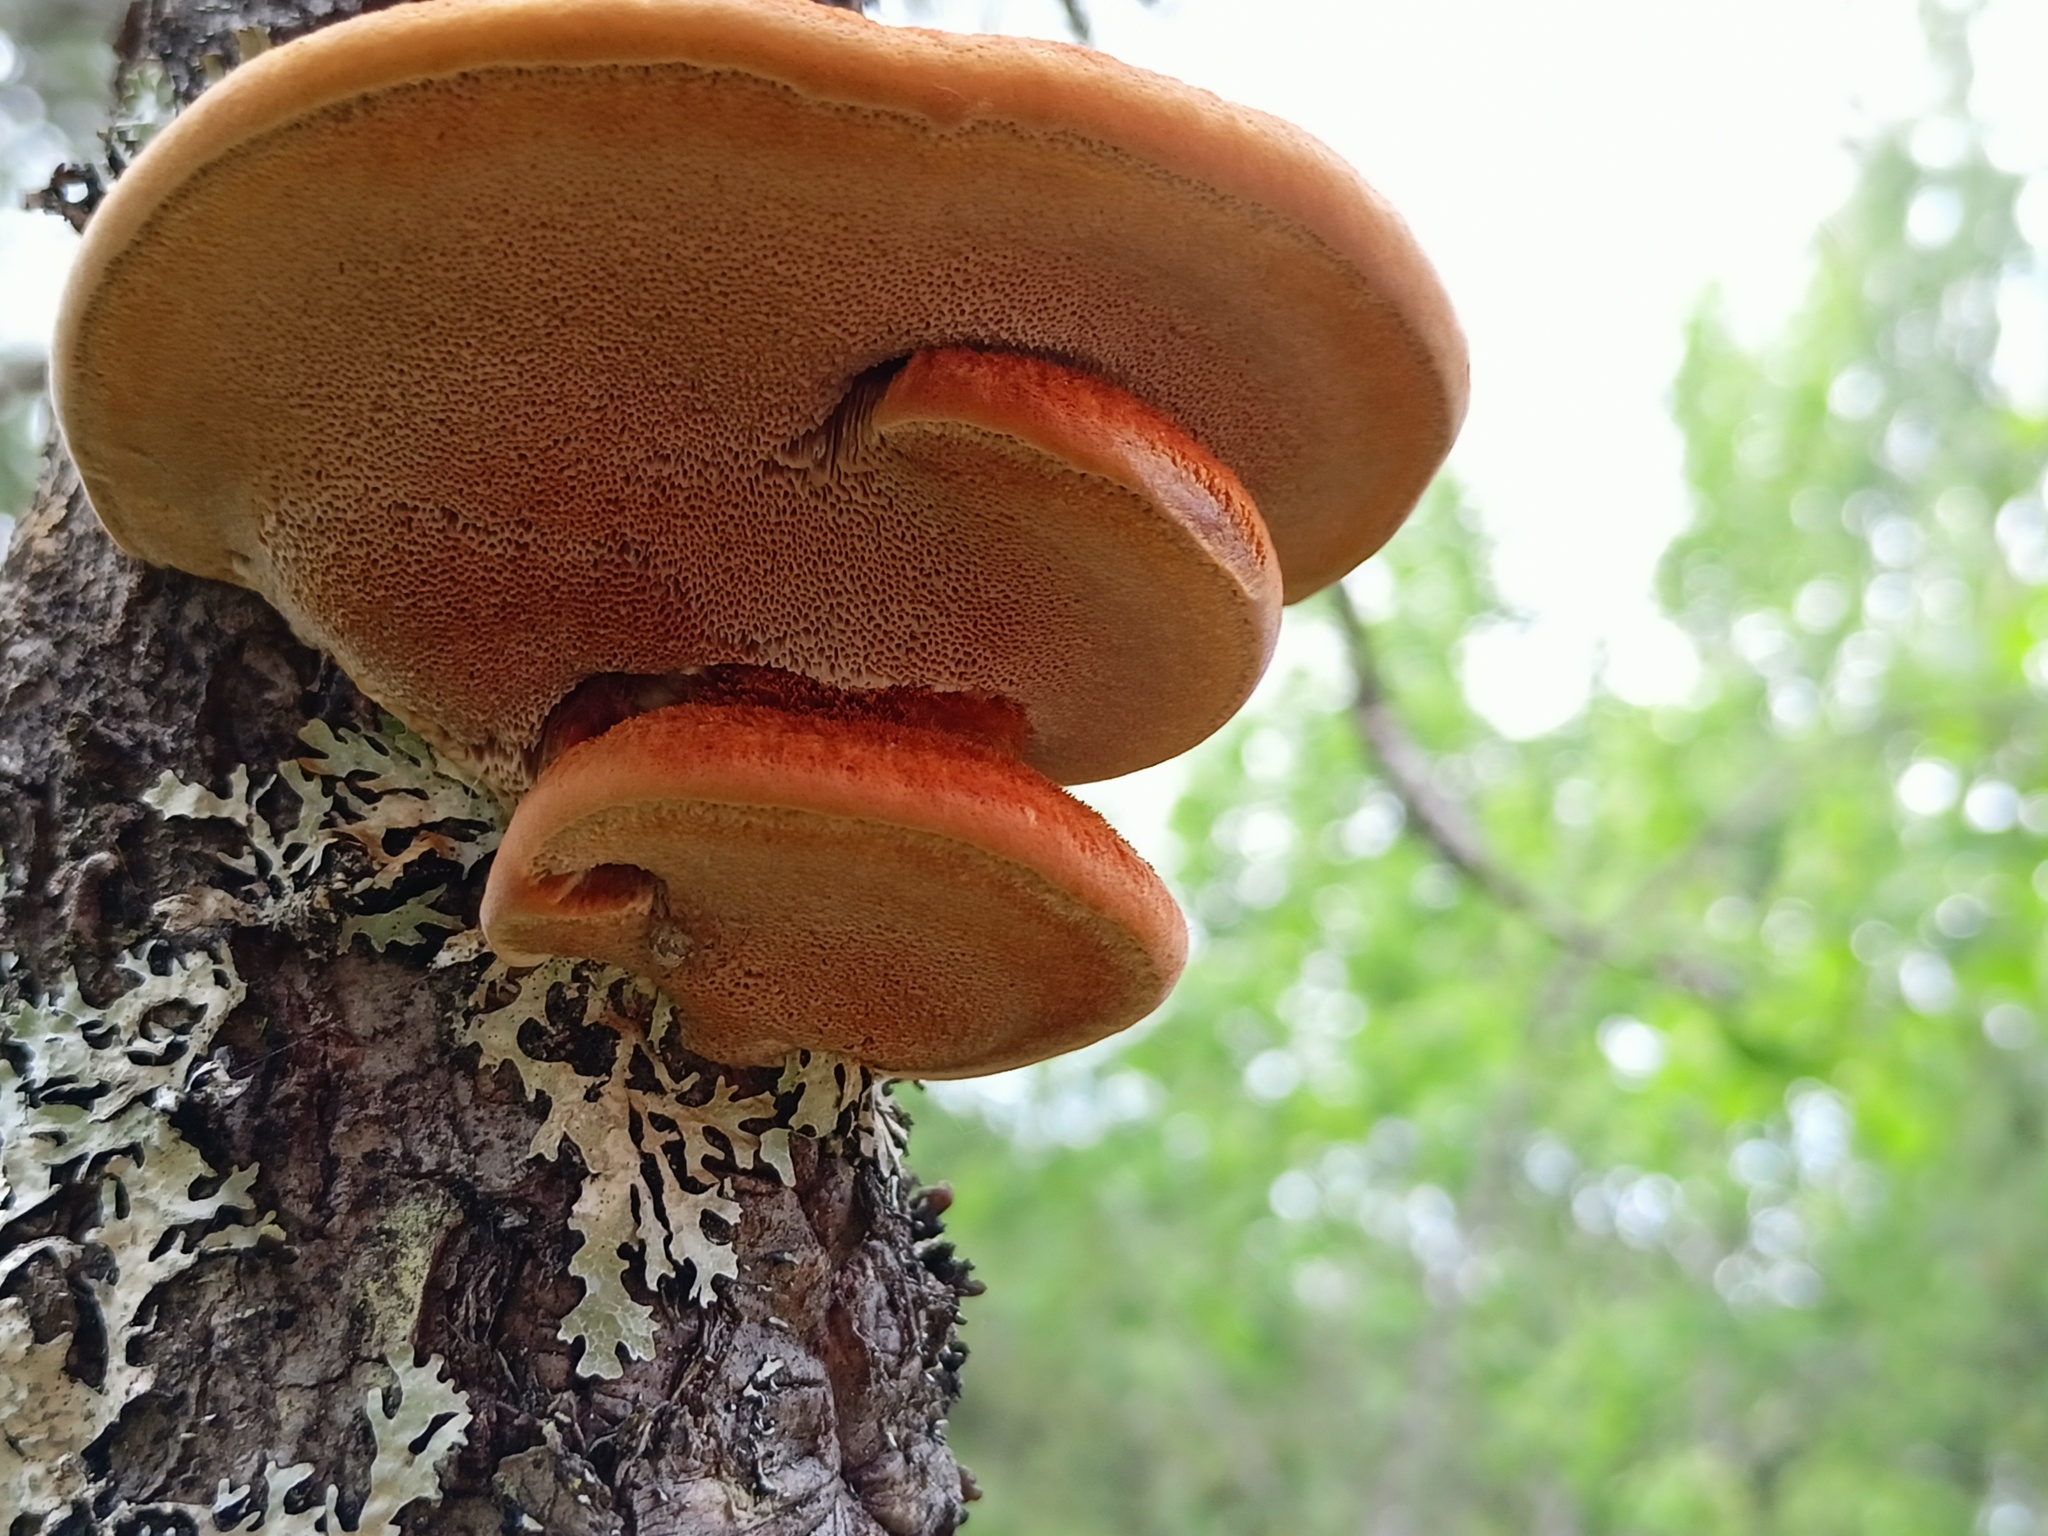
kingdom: Fungi
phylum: Basidiomycota
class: Agaricomycetes
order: Hymenochaetales
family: Hymenochaetaceae
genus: Inonotus
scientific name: Inonotus hispidus
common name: Shaggy bracket
